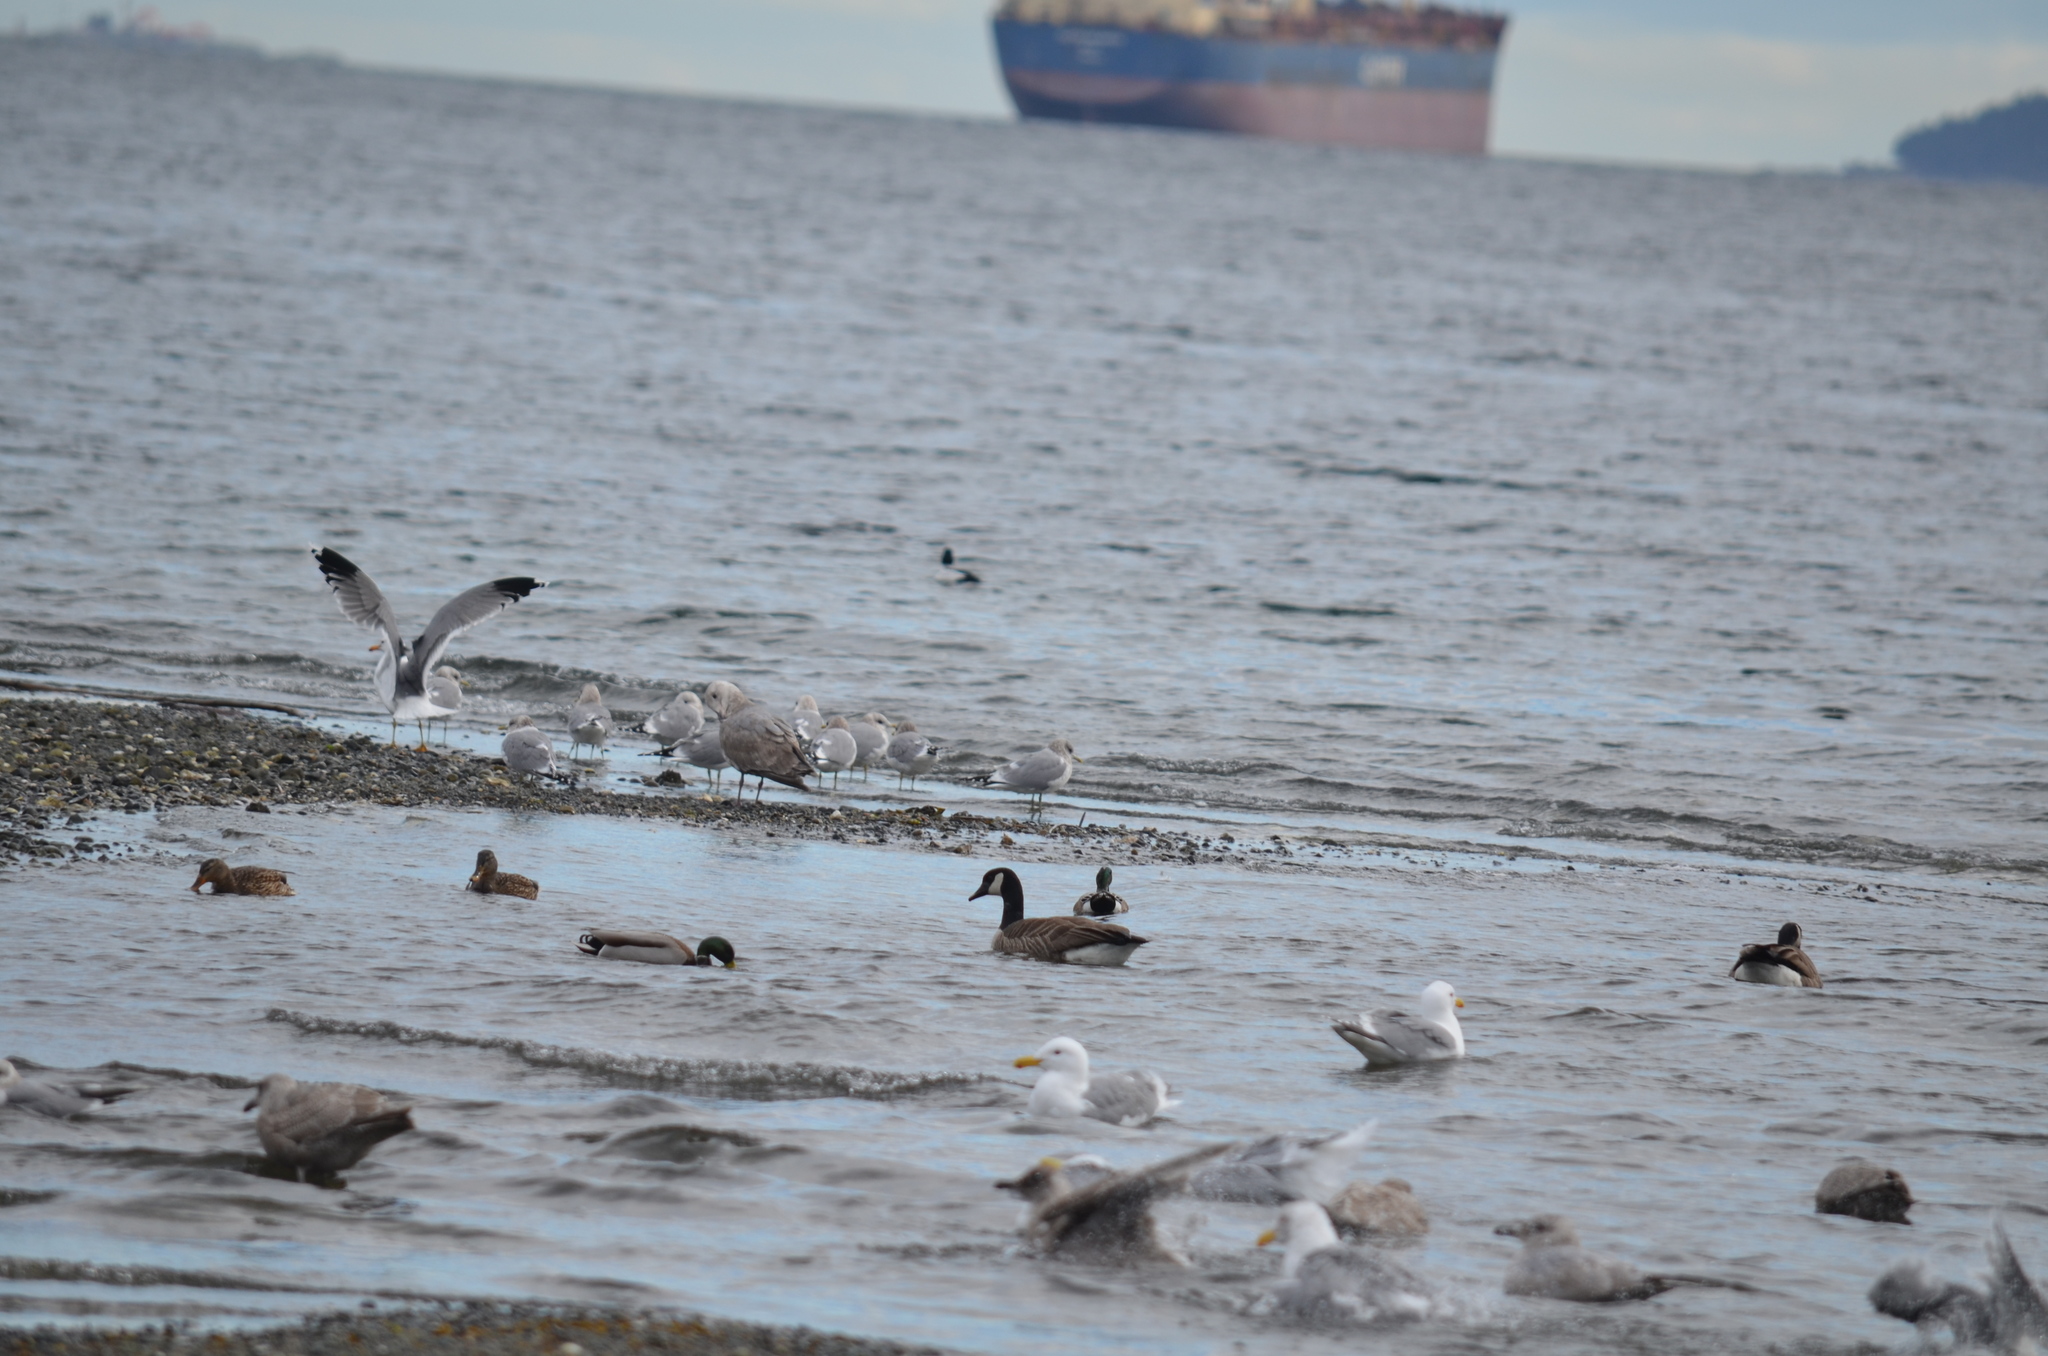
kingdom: Animalia
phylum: Chordata
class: Aves
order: Anseriformes
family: Anatidae
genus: Branta
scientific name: Branta canadensis
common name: Canada goose
